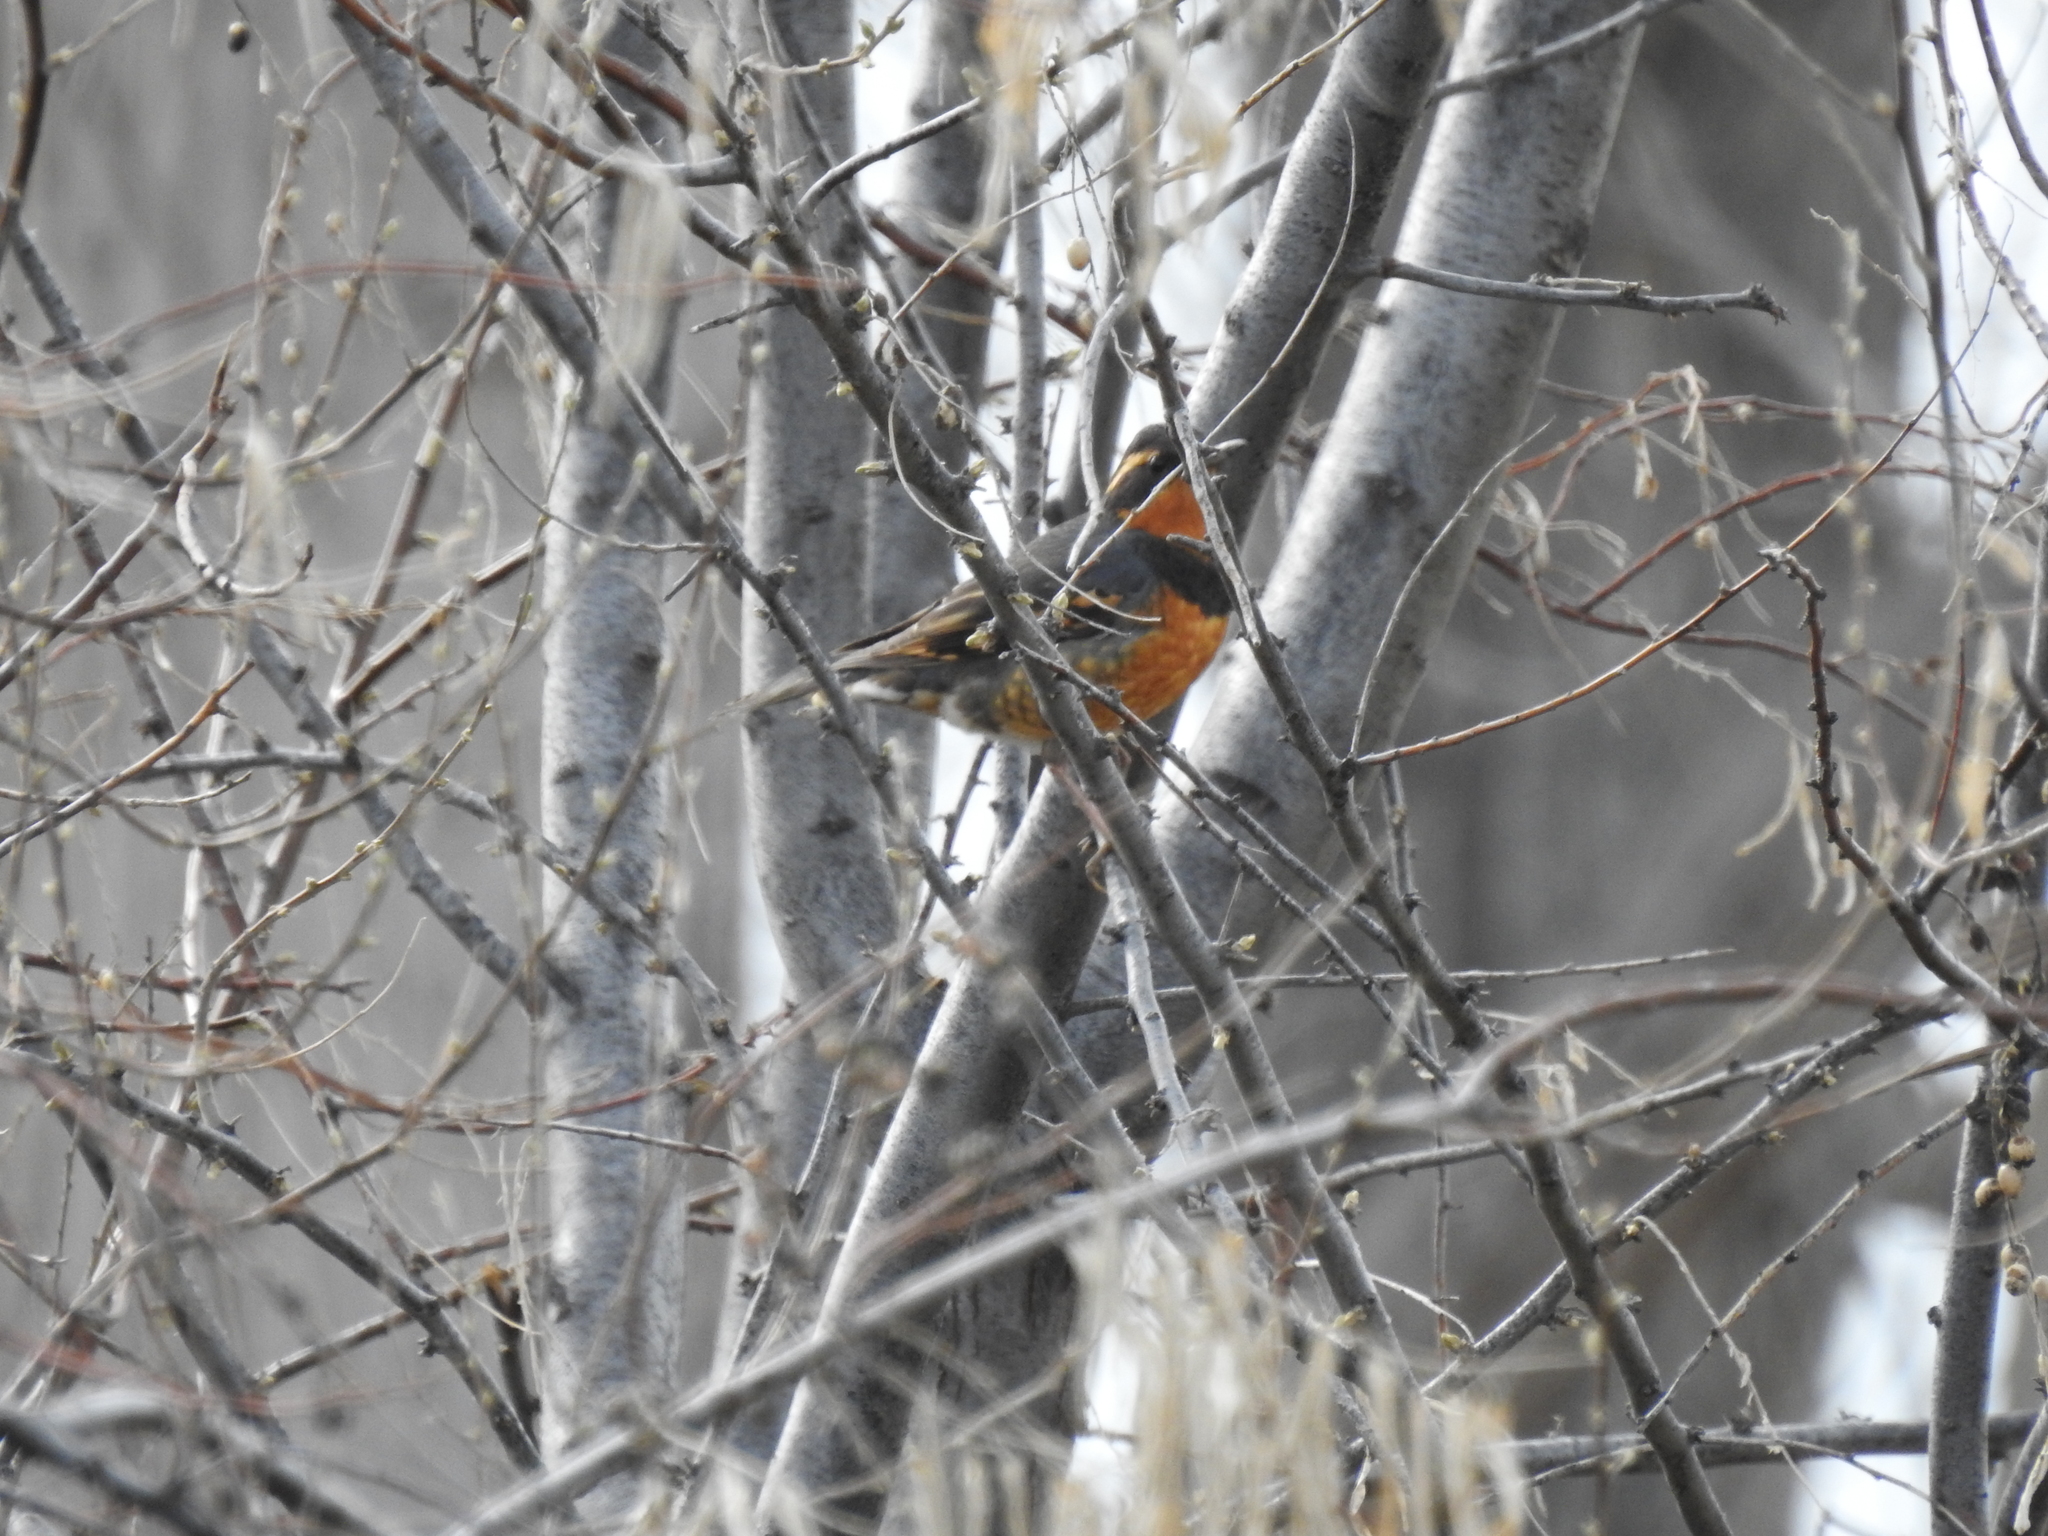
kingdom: Animalia
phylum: Chordata
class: Aves
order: Passeriformes
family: Turdidae
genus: Ixoreus
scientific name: Ixoreus naevius
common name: Varied thrush
